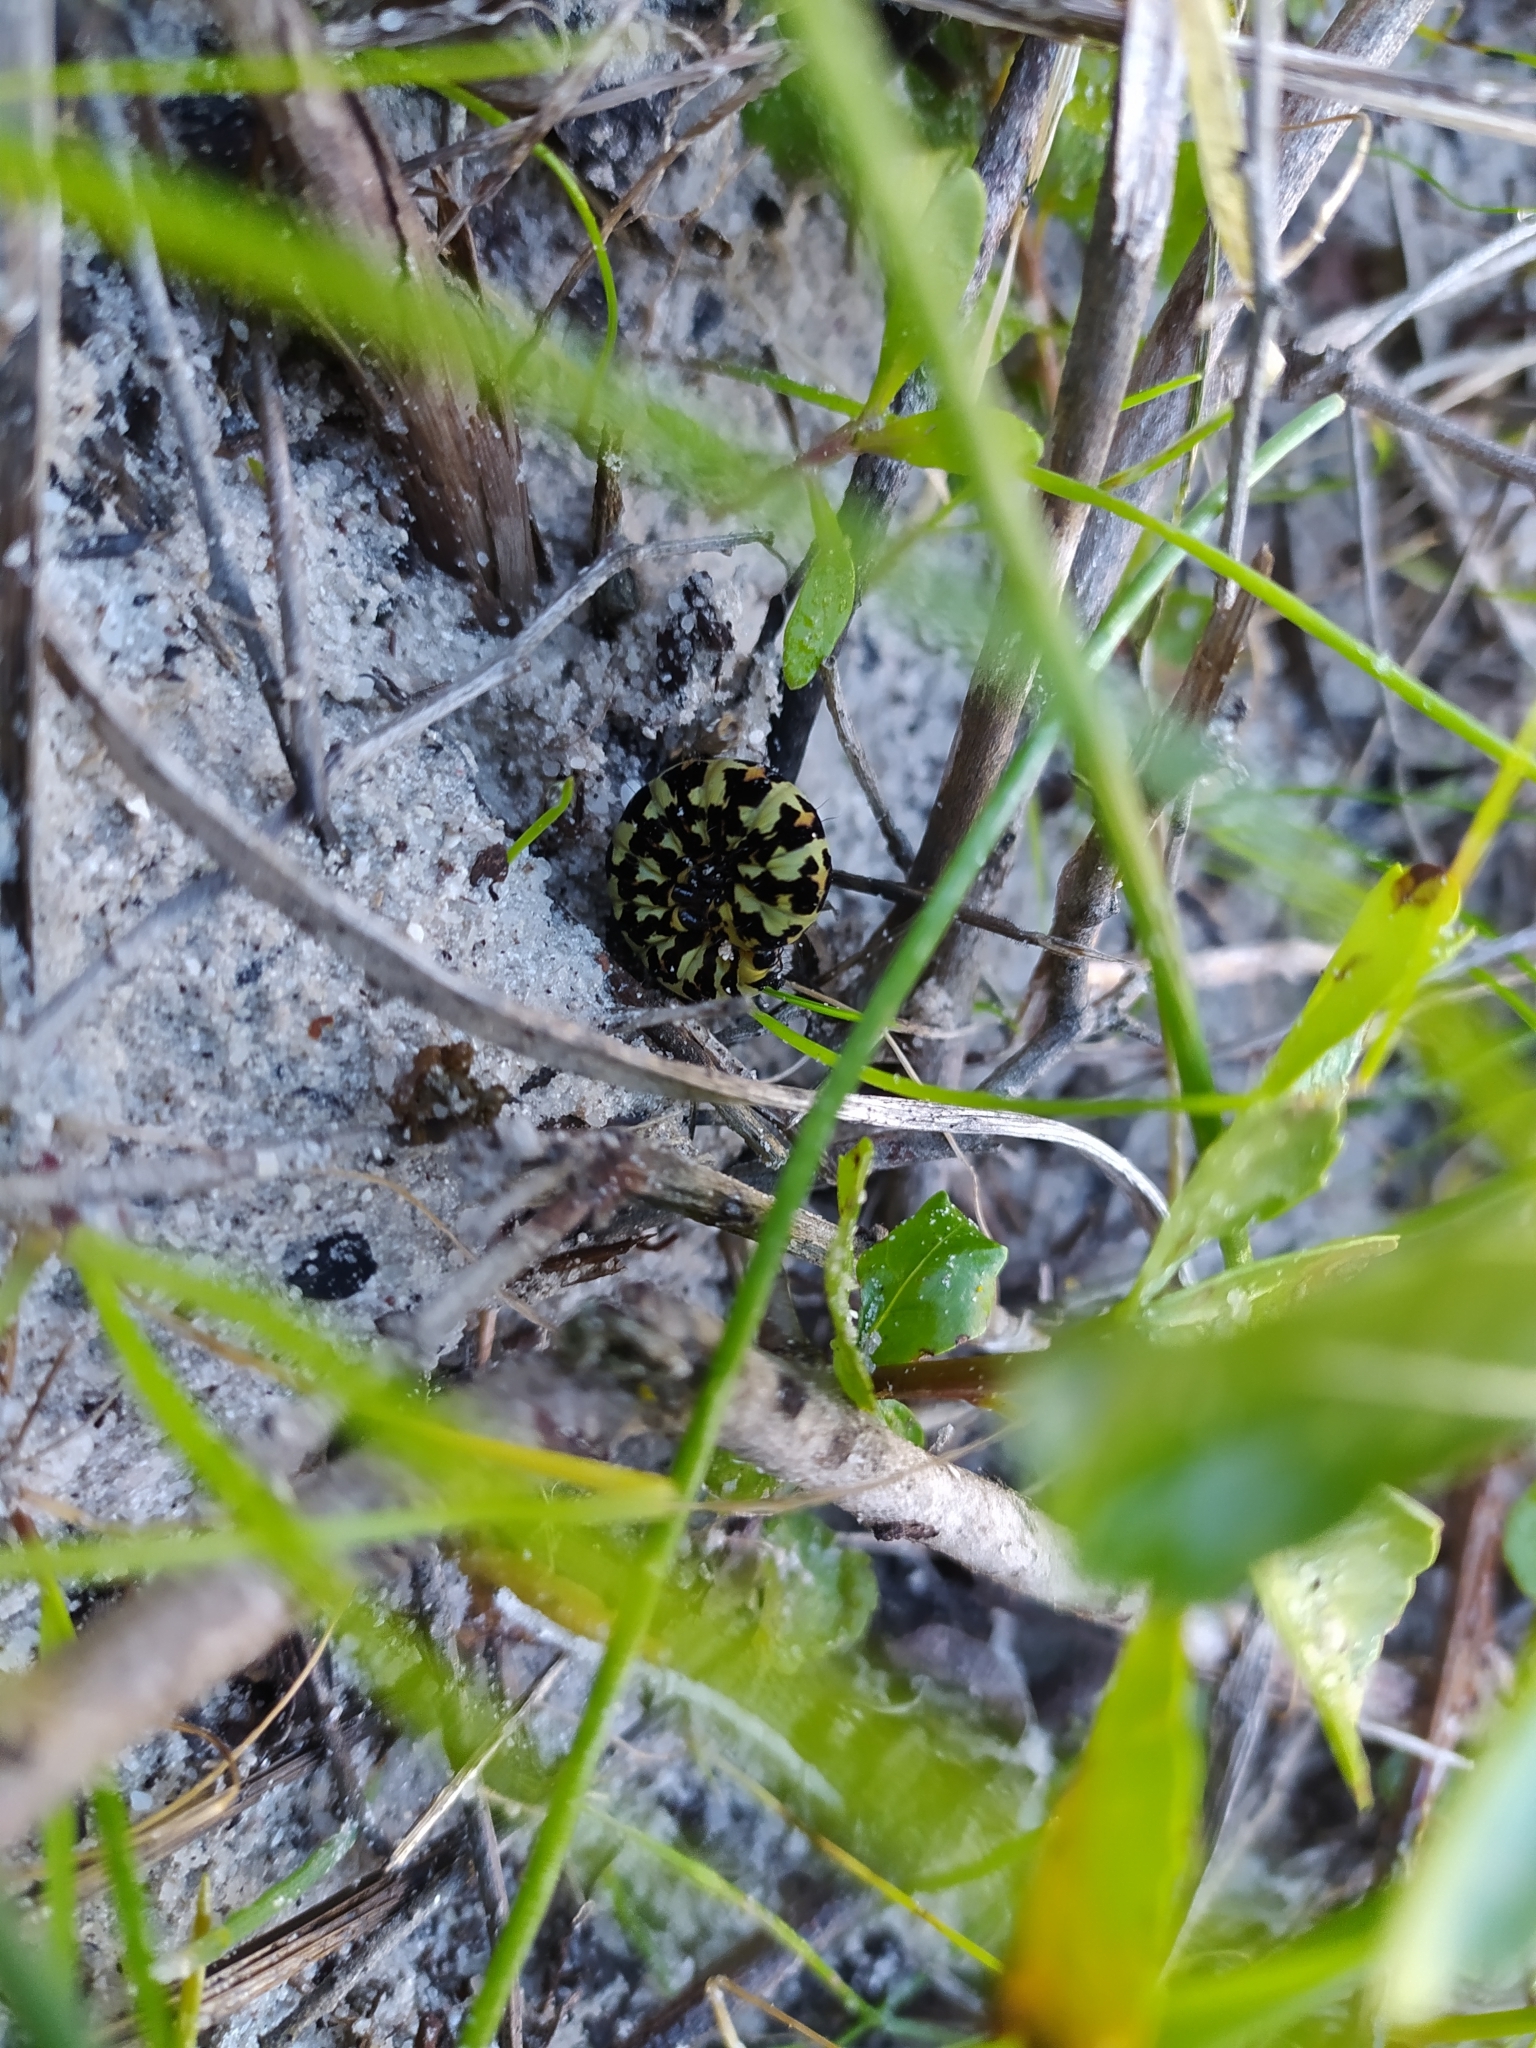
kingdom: Animalia
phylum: Arthropoda
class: Insecta
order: Lepidoptera
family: Noctuidae
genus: Diaphone
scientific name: Diaphone eumela
